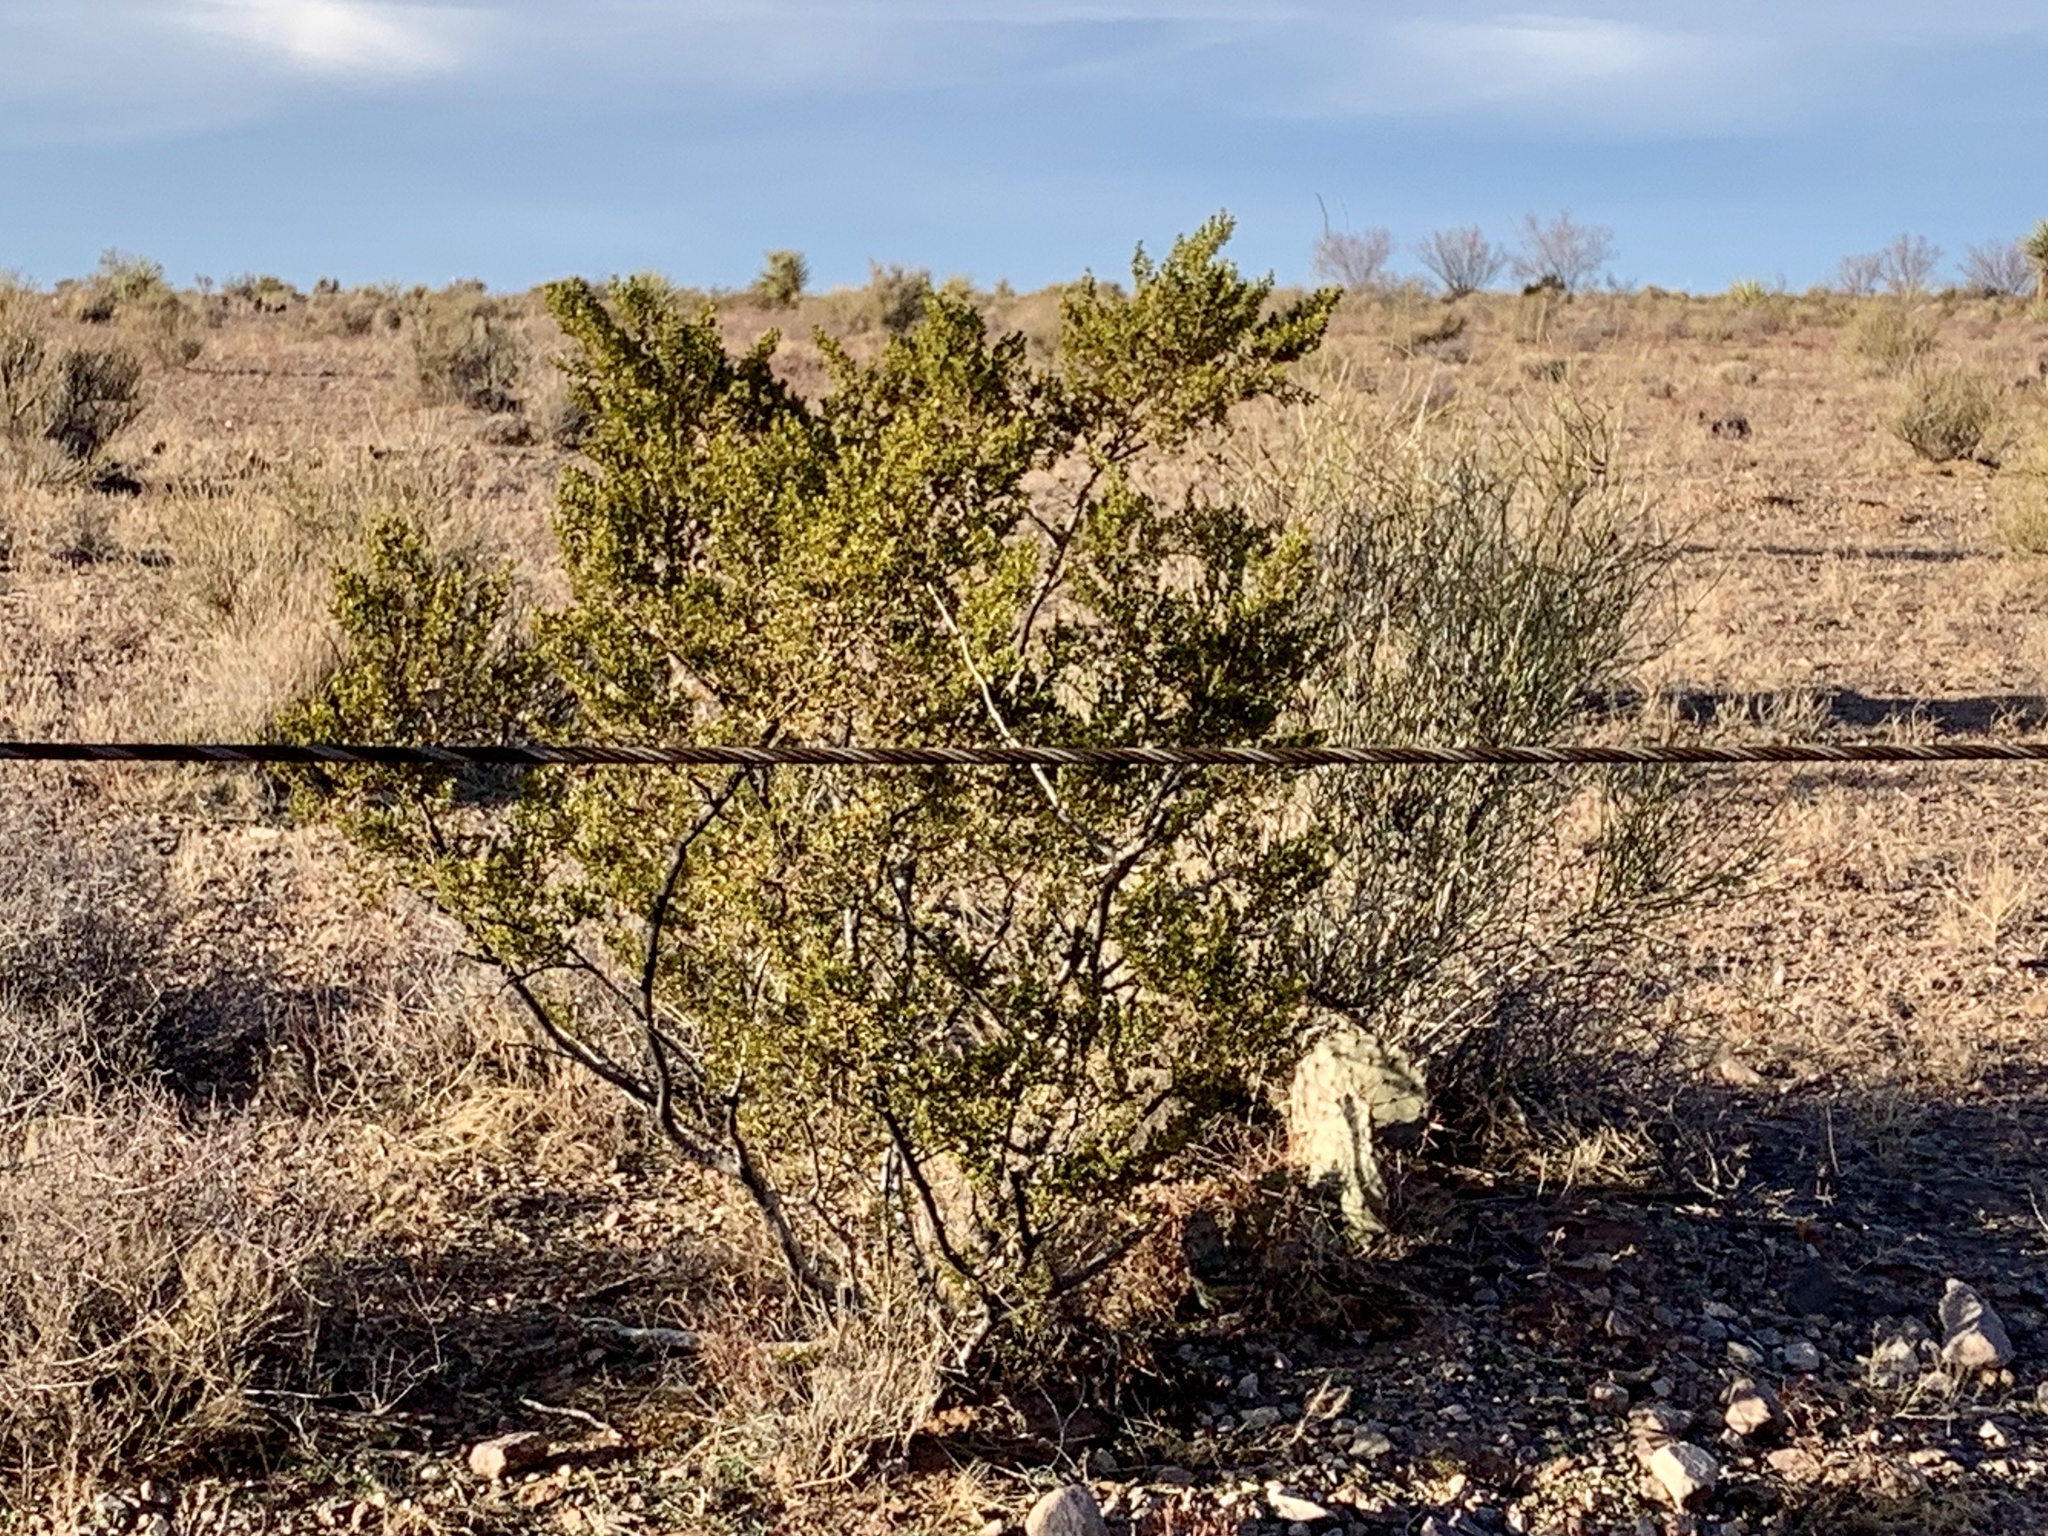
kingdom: Plantae
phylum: Tracheophyta
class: Magnoliopsida
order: Zygophyllales
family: Zygophyllaceae
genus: Larrea
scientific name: Larrea tridentata
